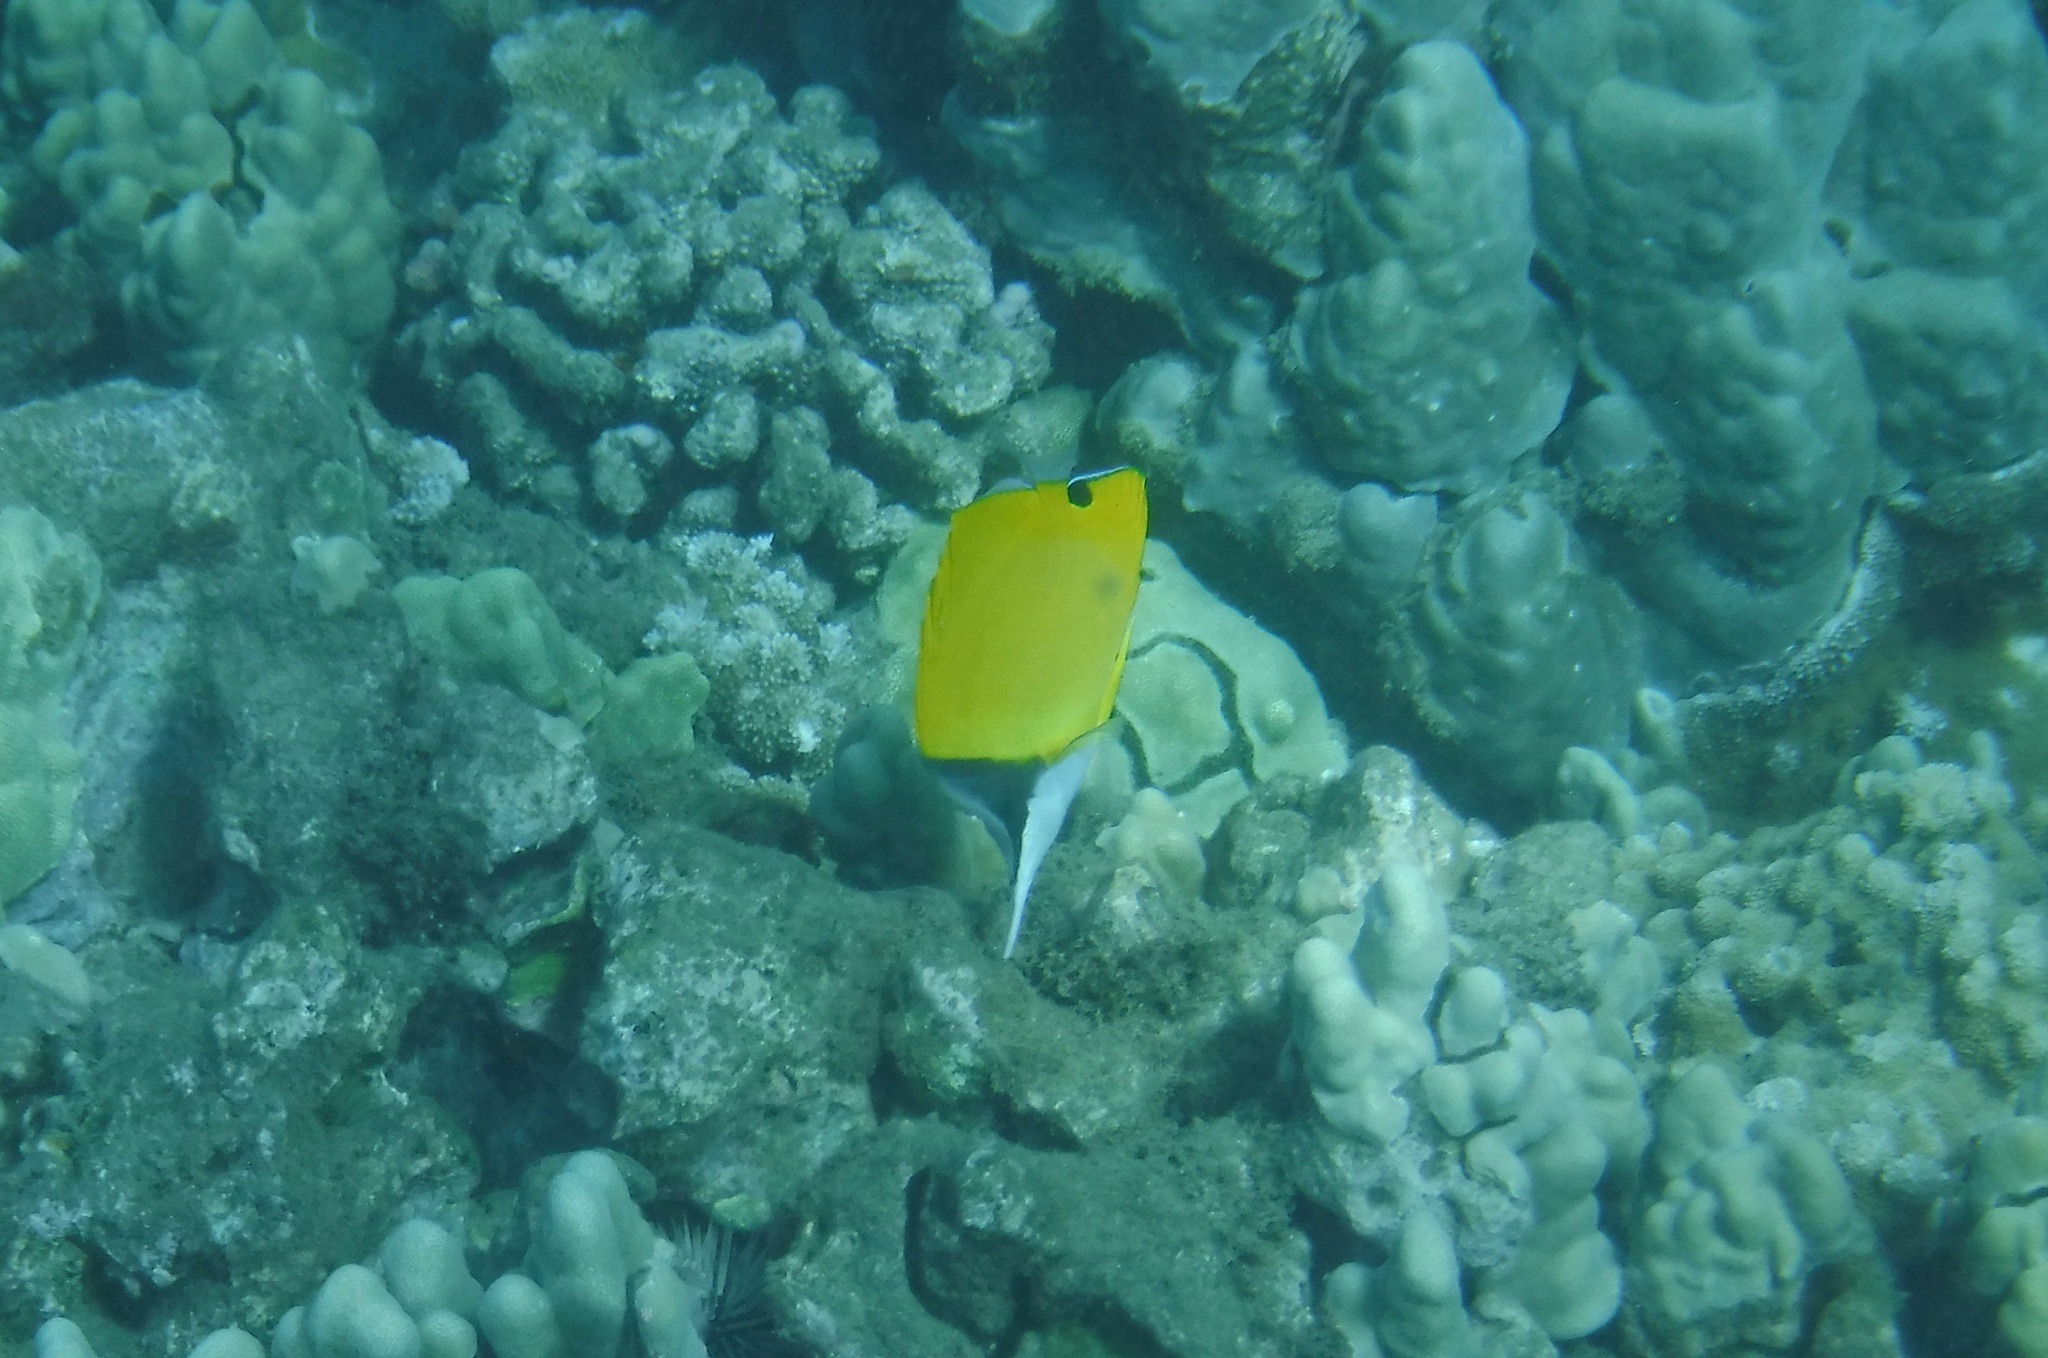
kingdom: Animalia
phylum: Chordata
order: Perciformes
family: Chaetodontidae
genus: Forcipiger
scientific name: Forcipiger longirostris
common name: Longnose butterflyfish
